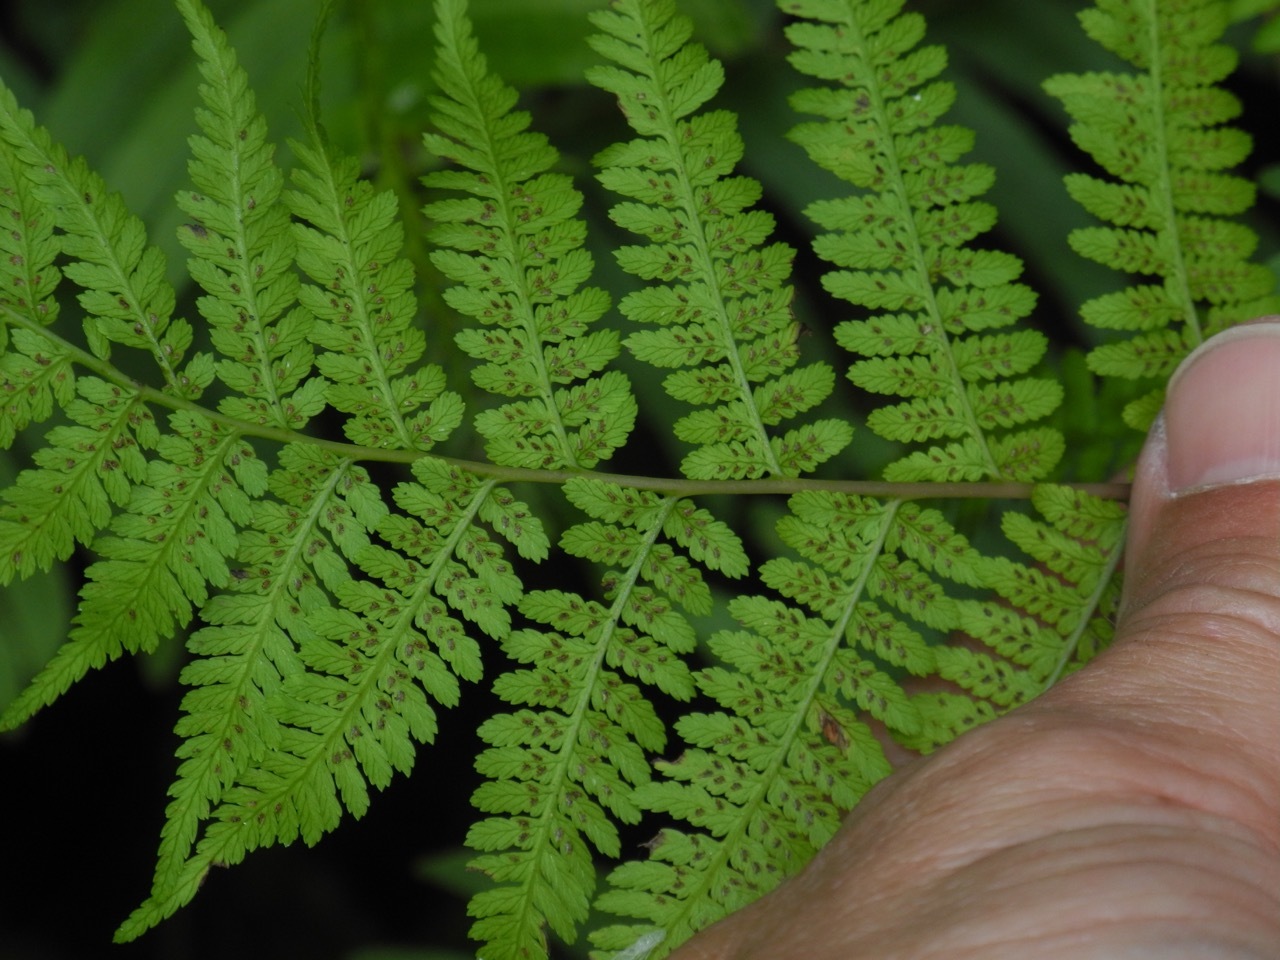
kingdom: Plantae
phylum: Tracheophyta
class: Polypodiopsida
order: Polypodiales
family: Athyriaceae
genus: Athyrium
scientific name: Athyrium asplenioides
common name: Southern lady fern
